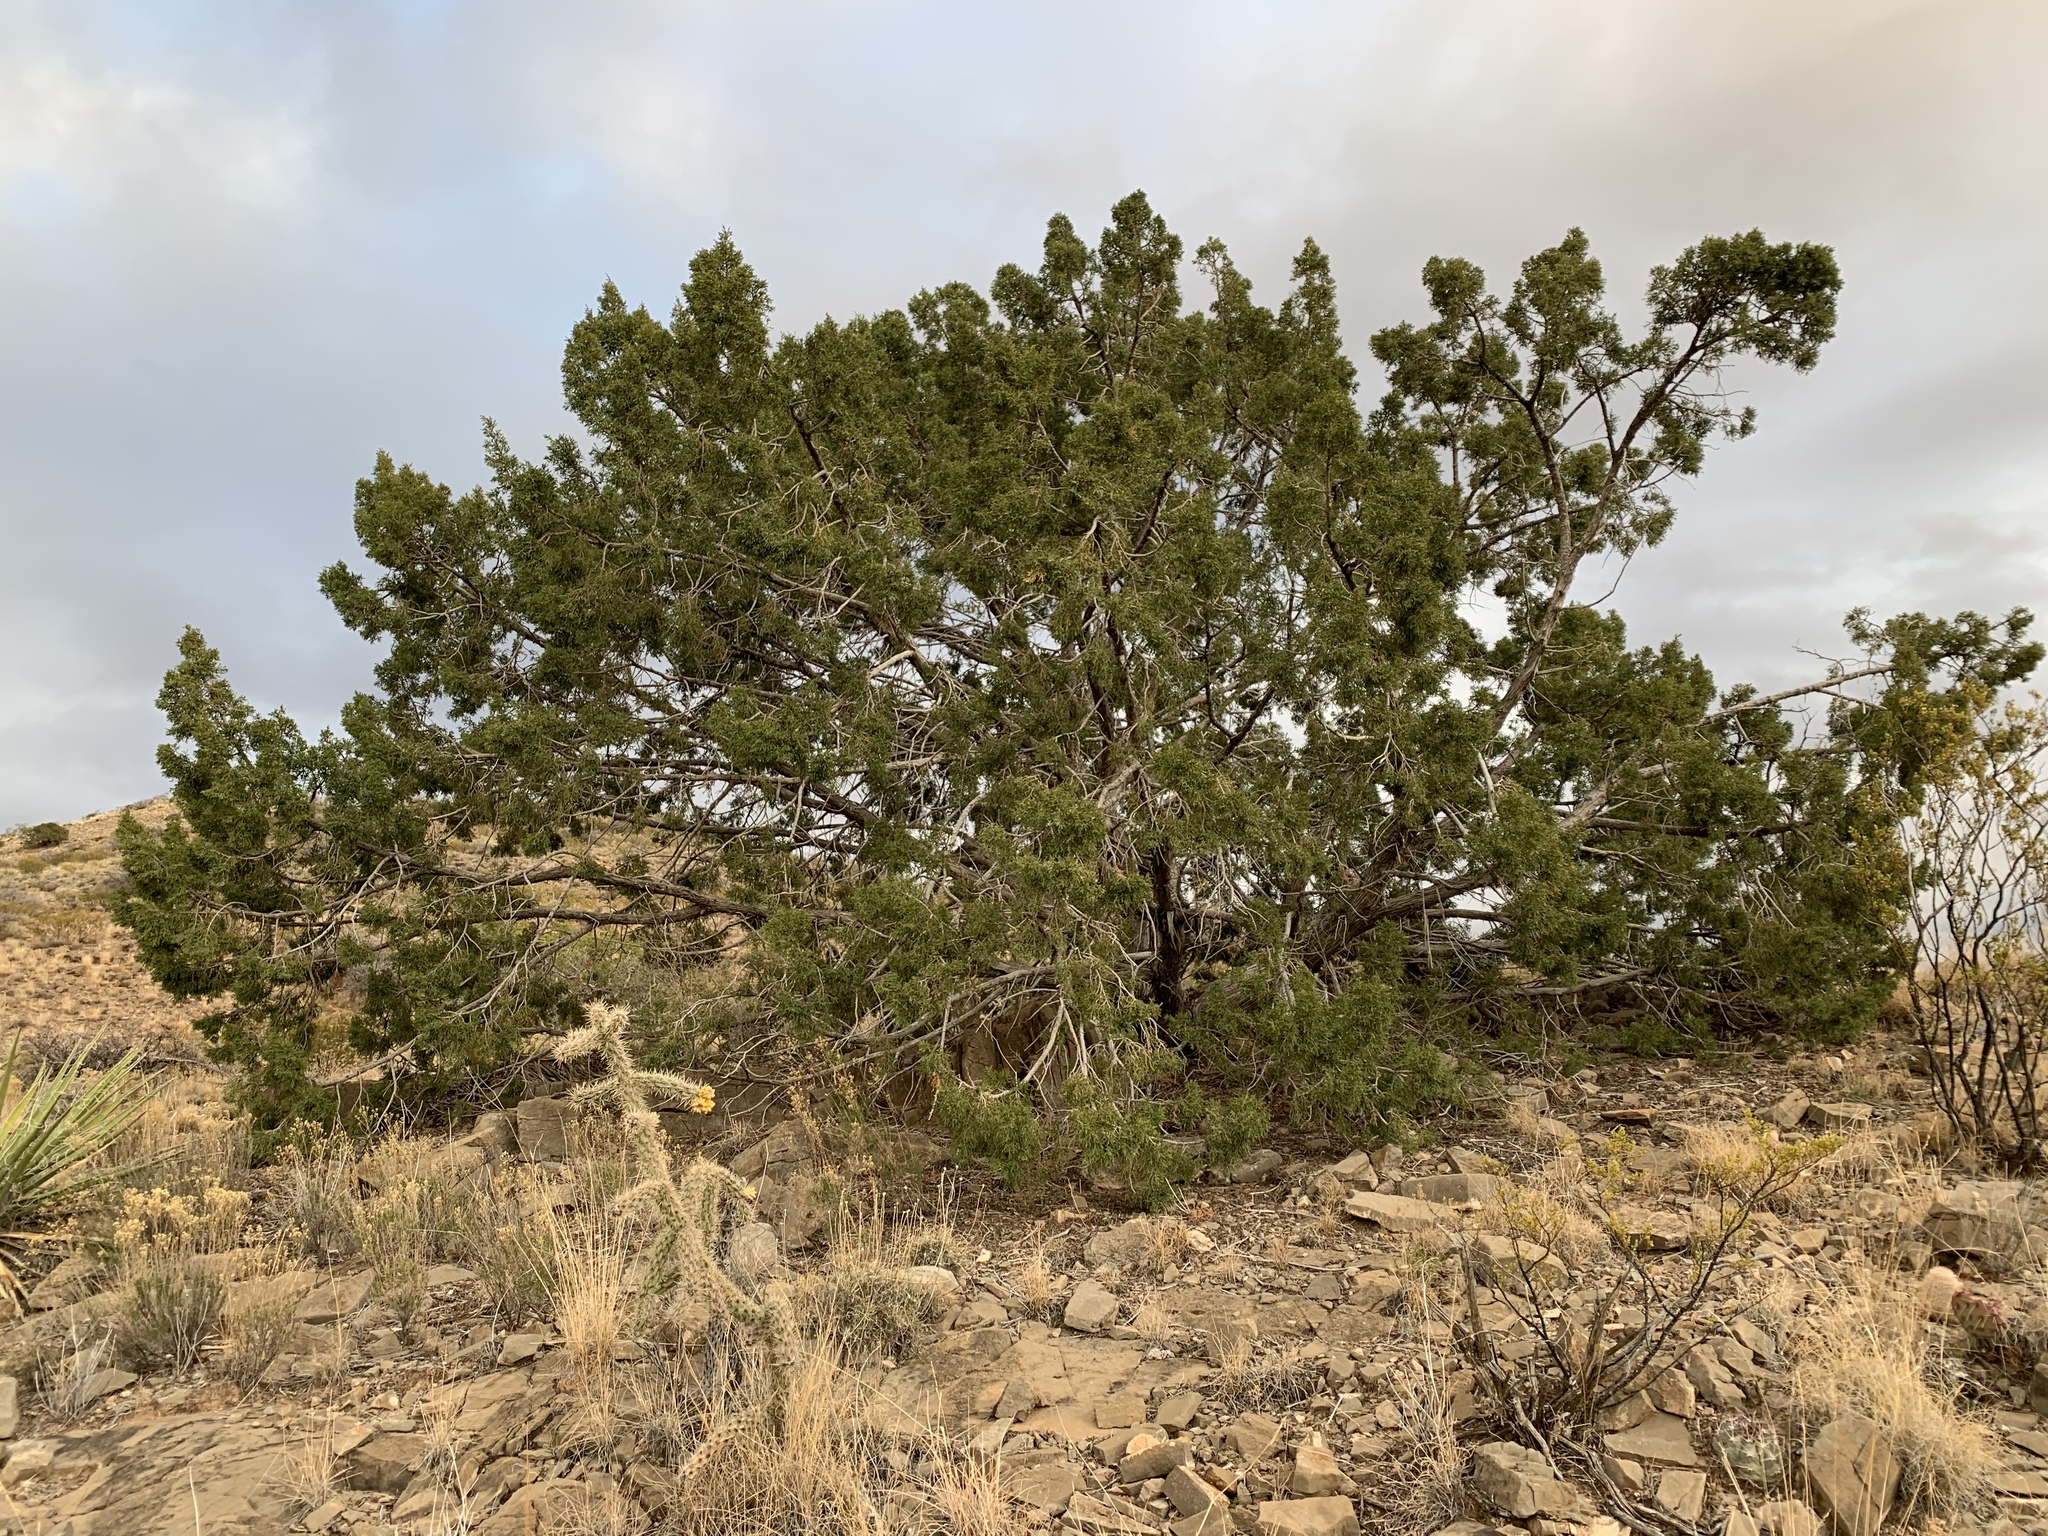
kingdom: Plantae
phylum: Tracheophyta
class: Pinopsida
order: Pinales
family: Cupressaceae
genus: Juniperus
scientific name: Juniperus monosperma
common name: One-seed juniper
